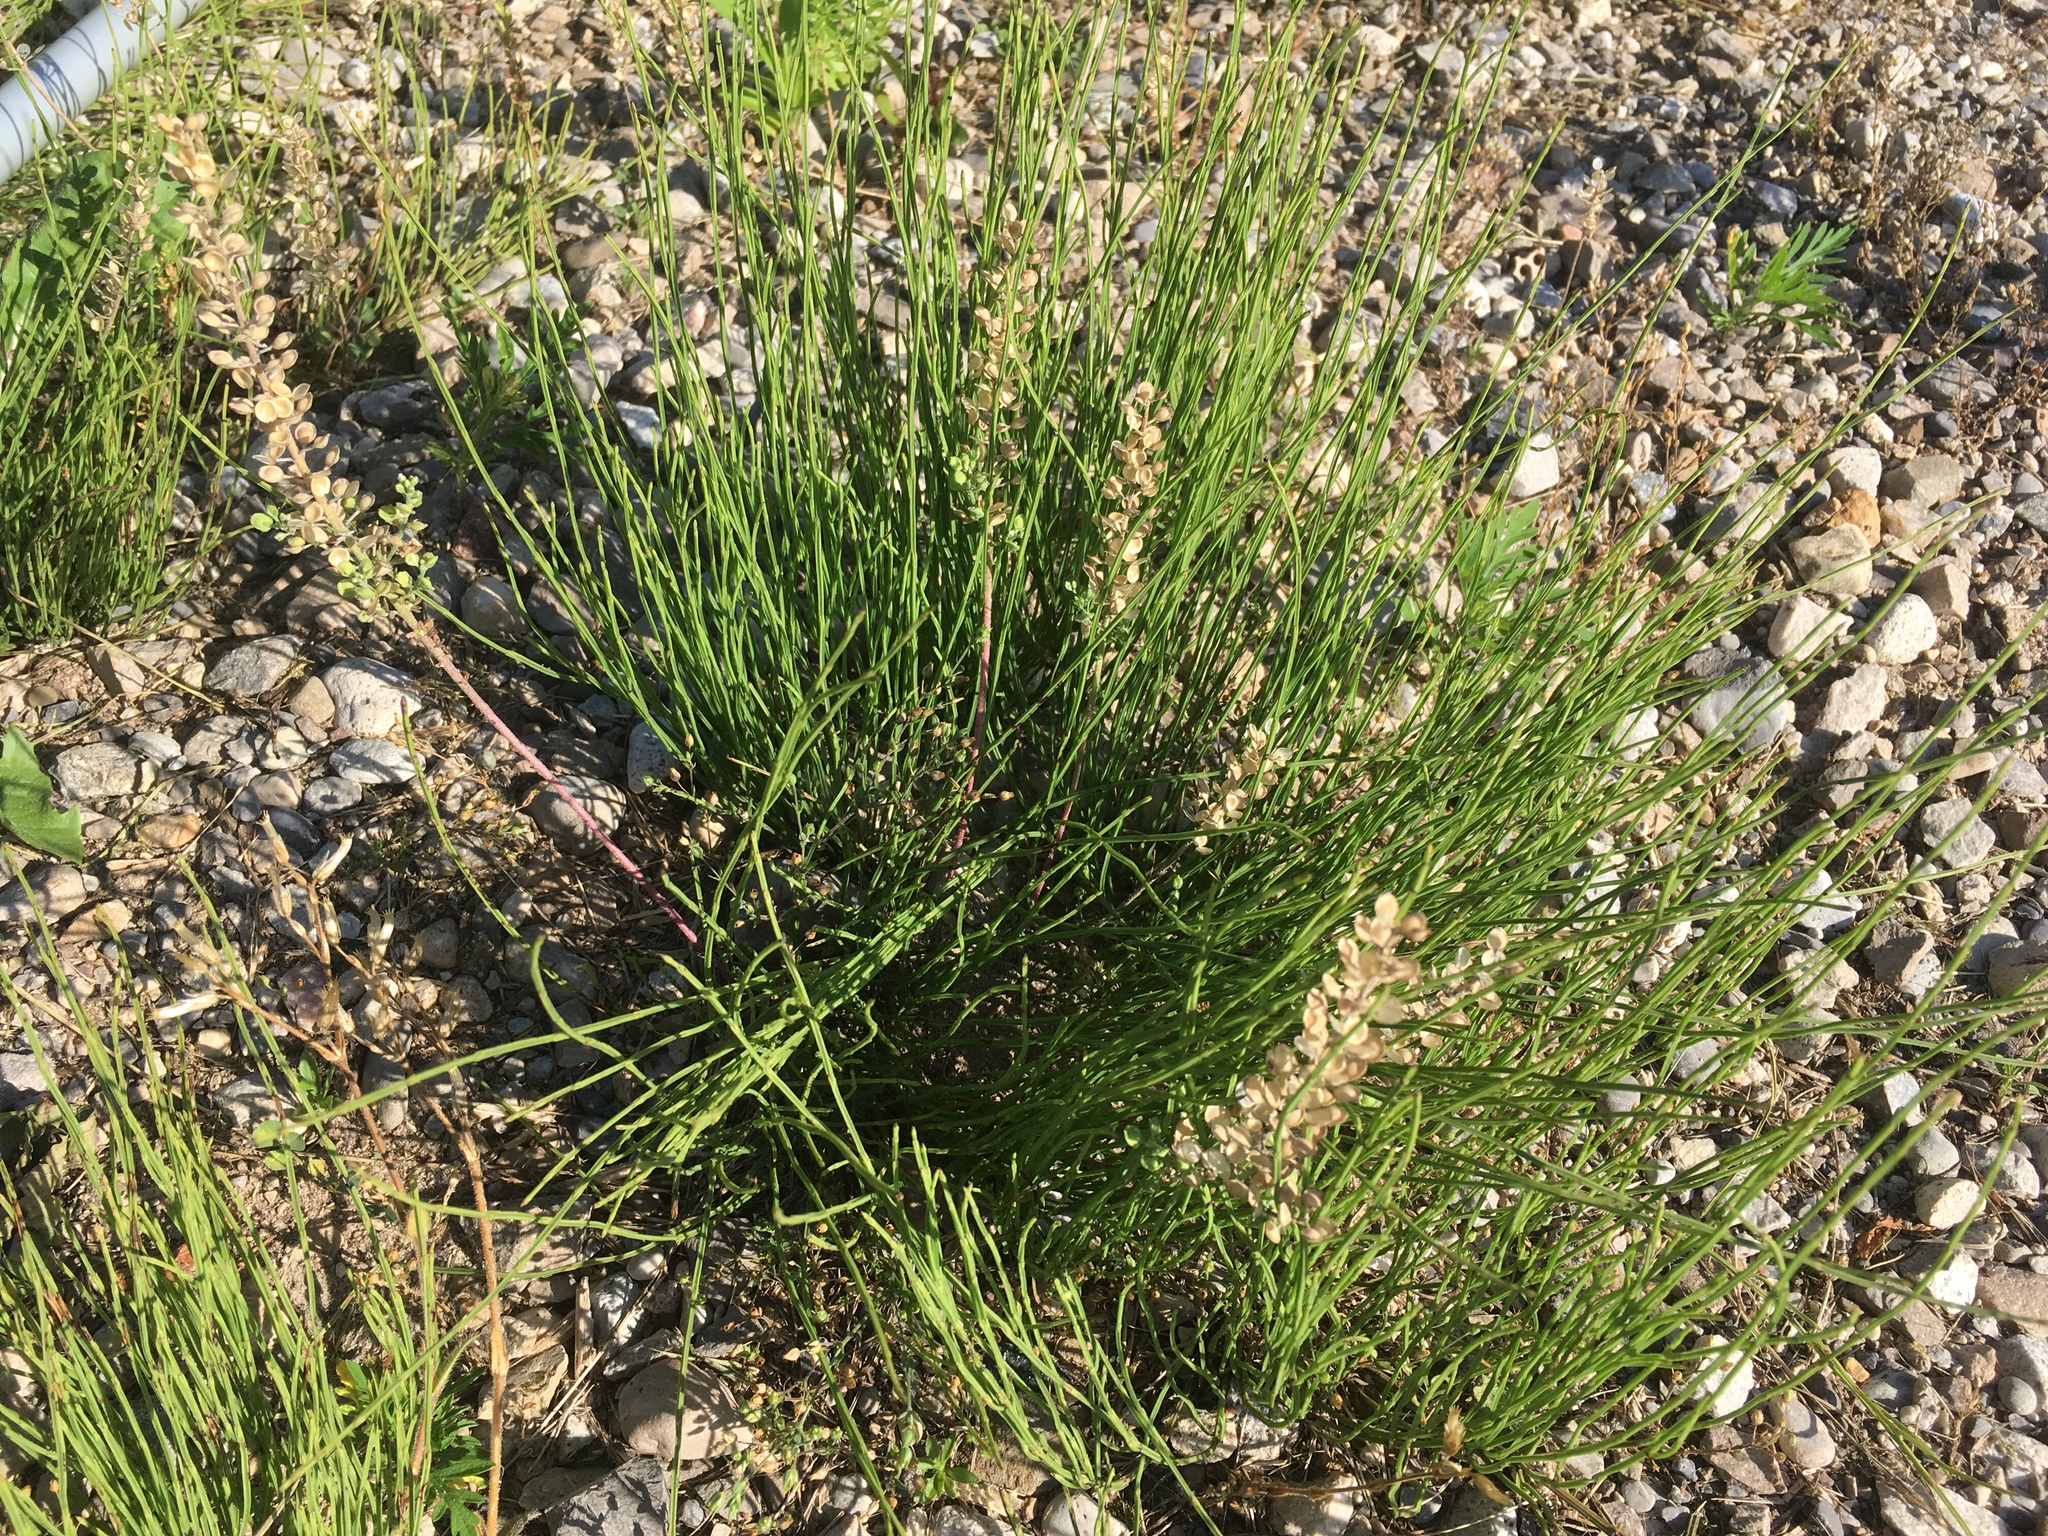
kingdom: Plantae
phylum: Tracheophyta
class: Polypodiopsida
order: Equisetales
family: Equisetaceae
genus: Equisetum
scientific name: Equisetum arvense
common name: Field horsetail
